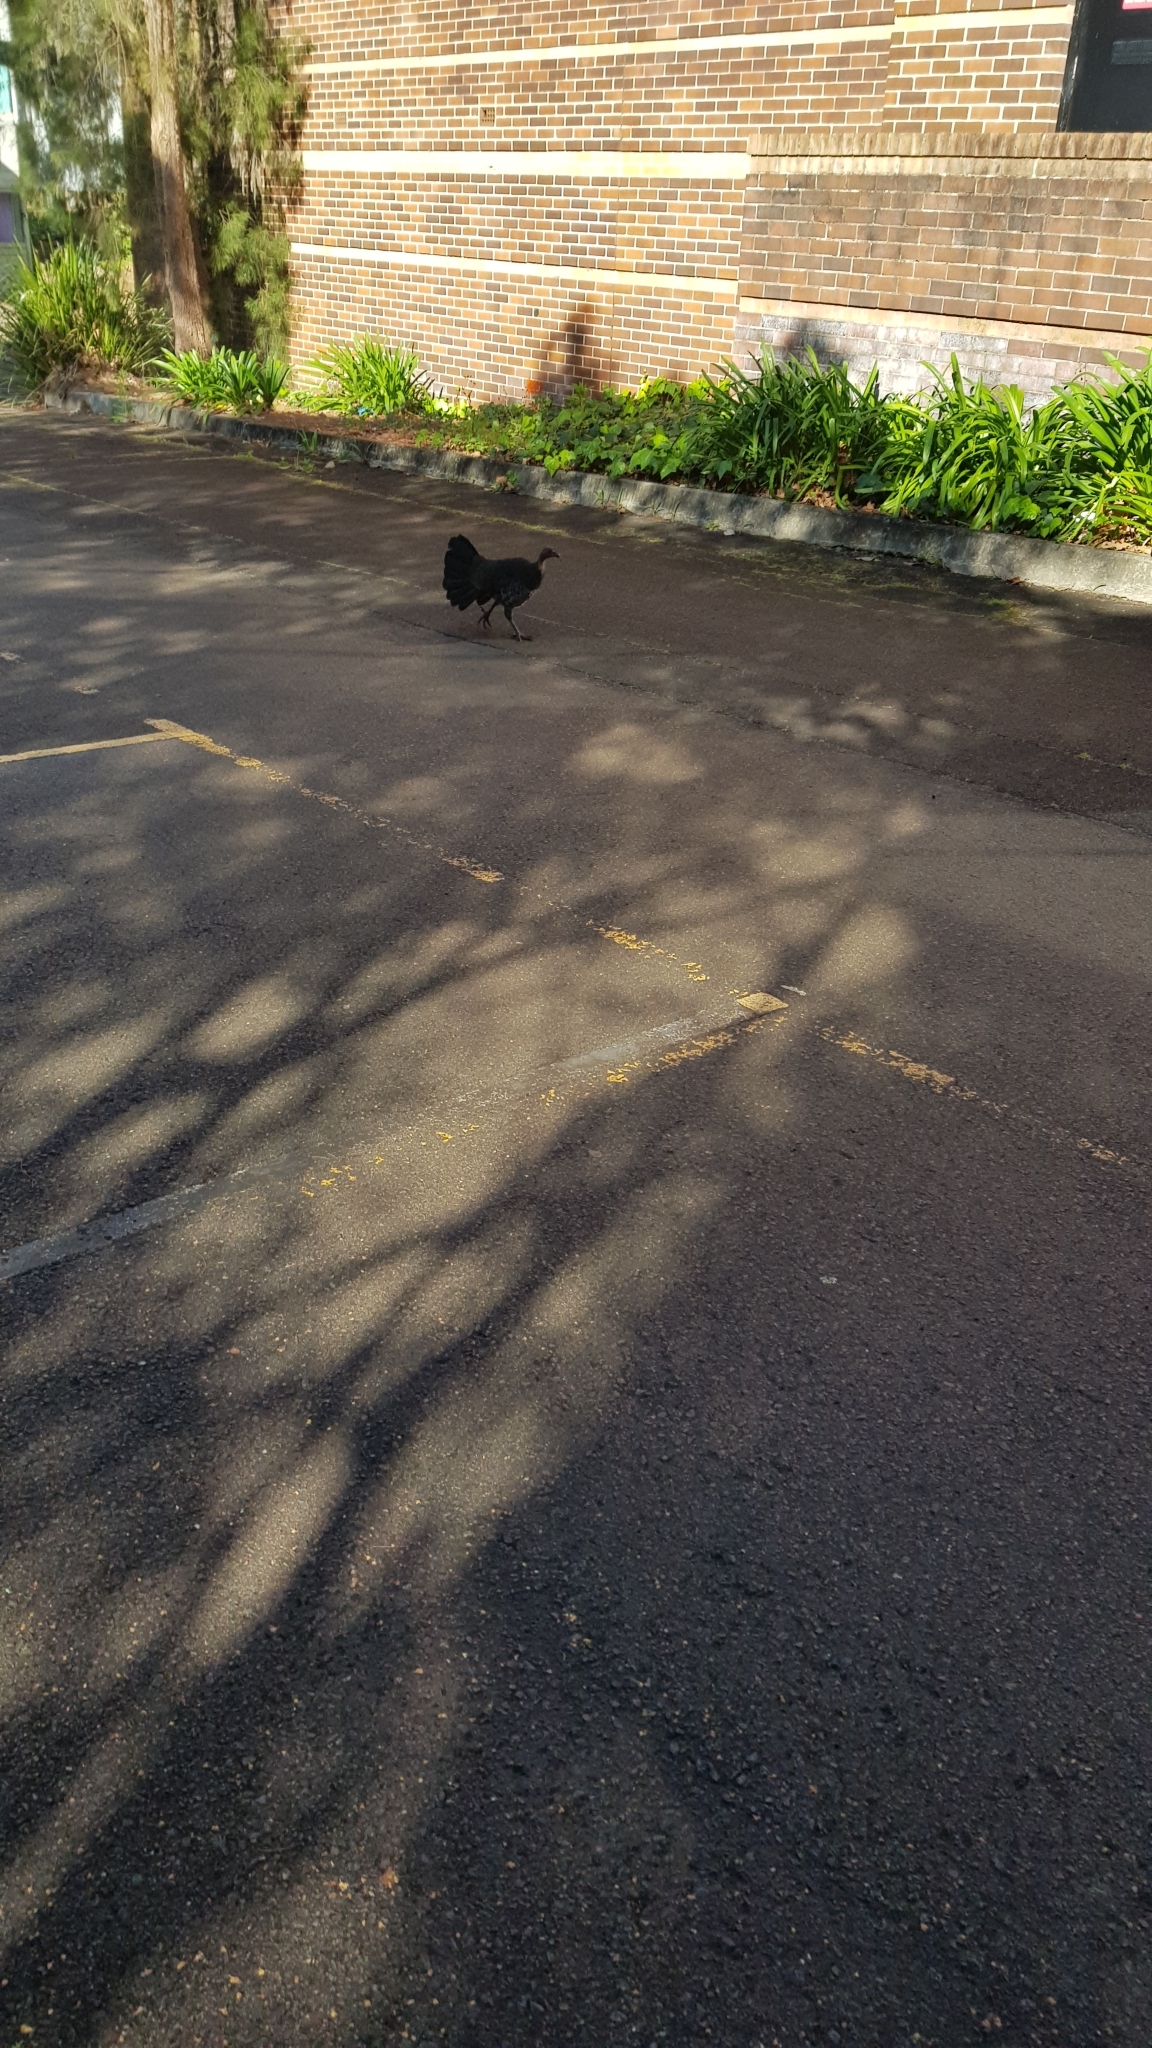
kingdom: Animalia
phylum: Chordata
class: Aves
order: Galliformes
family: Megapodiidae
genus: Alectura
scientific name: Alectura lathami
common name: Australian brushturkey
